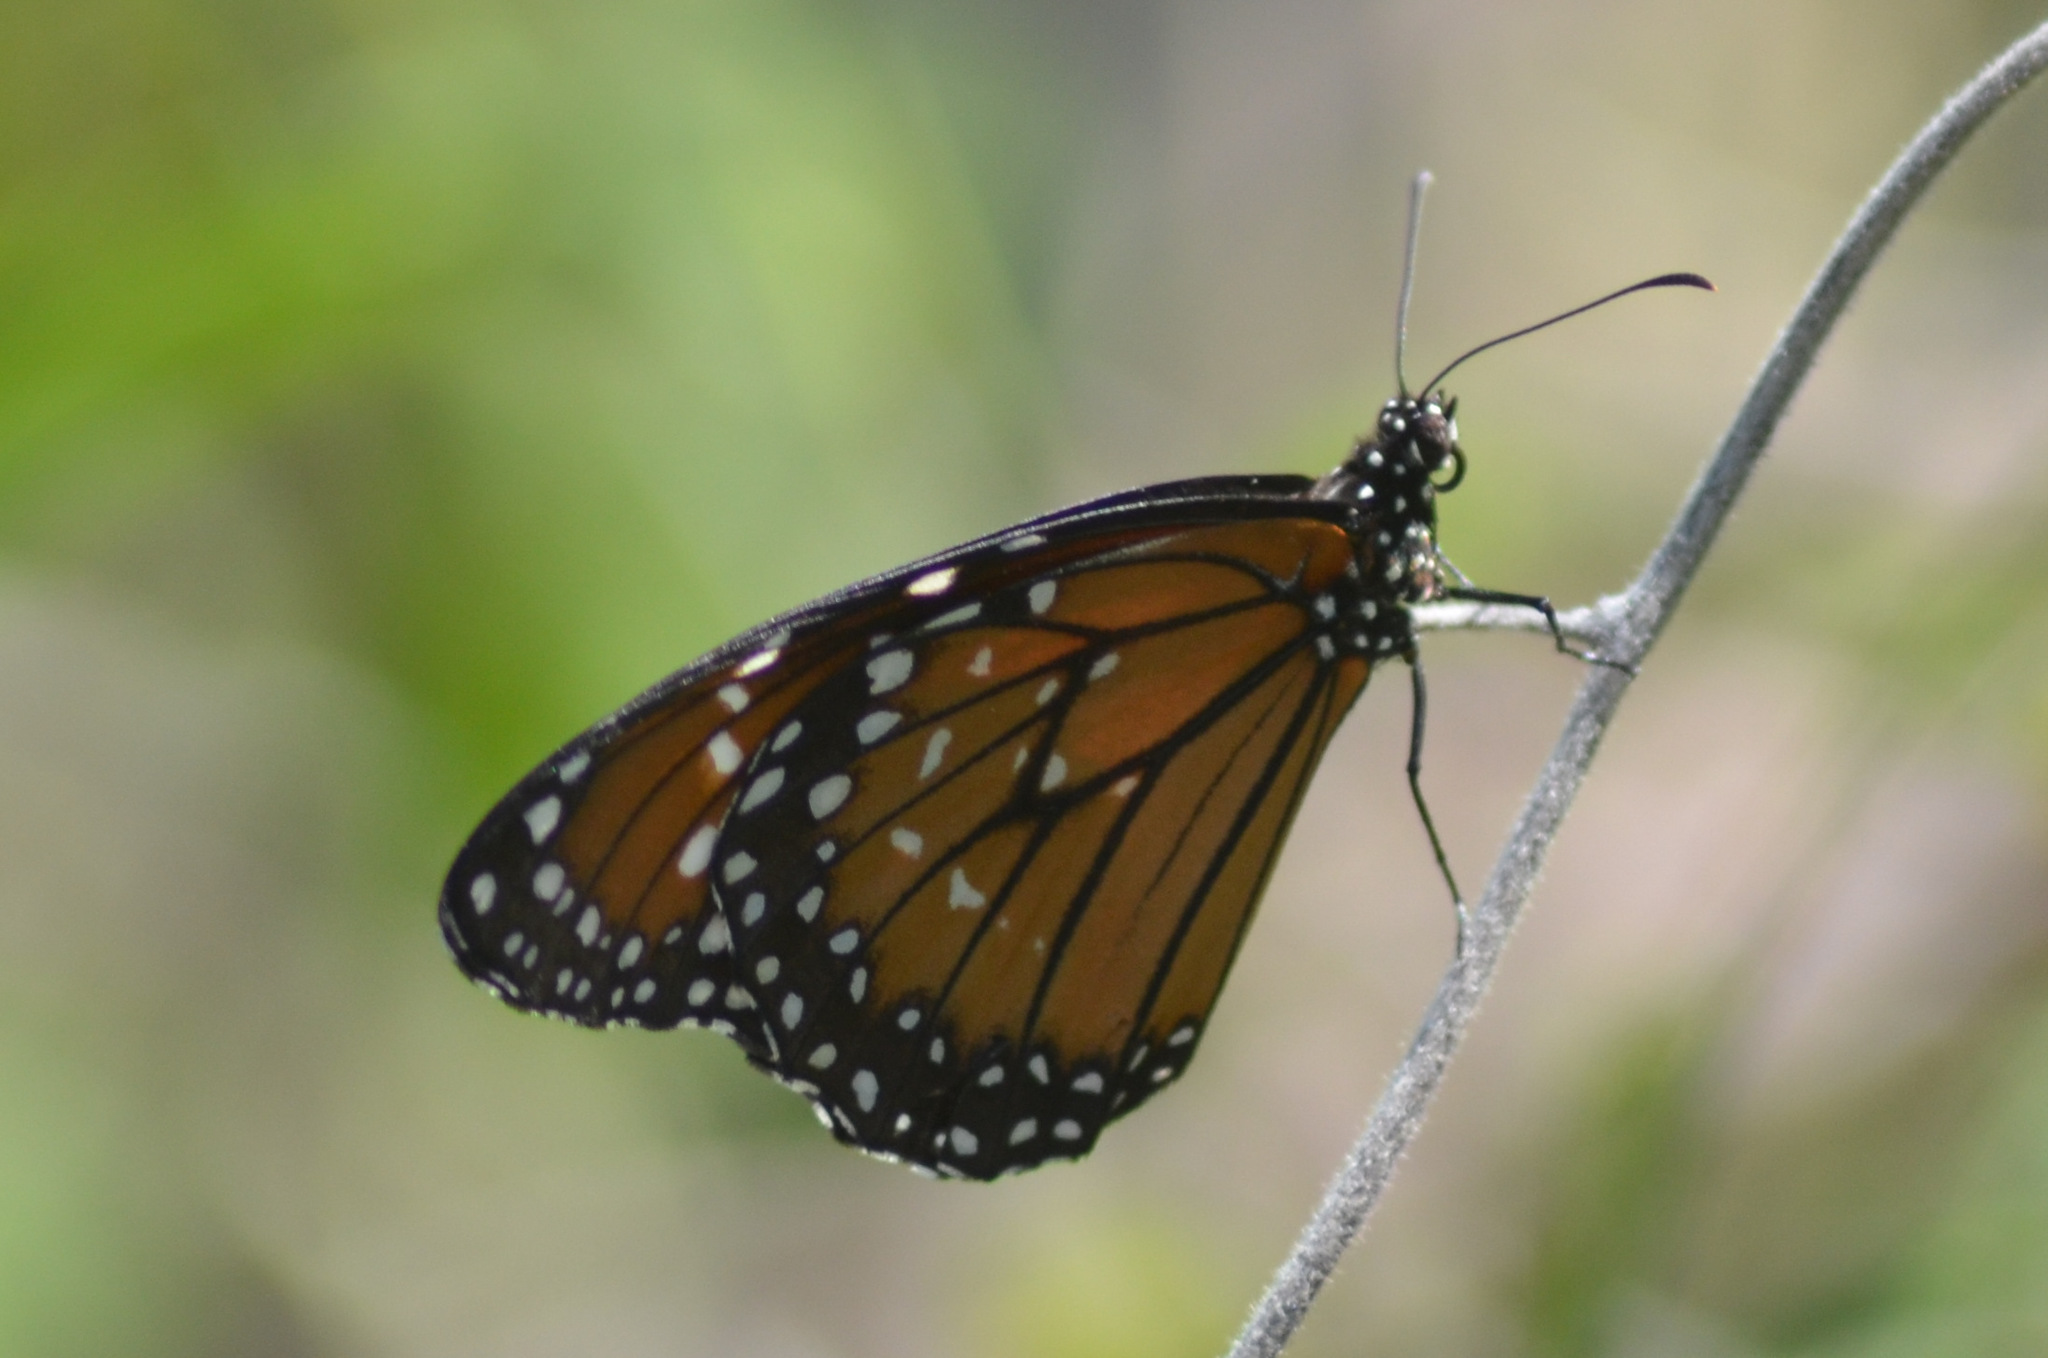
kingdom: Animalia
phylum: Arthropoda
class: Insecta
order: Lepidoptera
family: Nymphalidae
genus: Danaus
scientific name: Danaus eresimus
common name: Soldier
